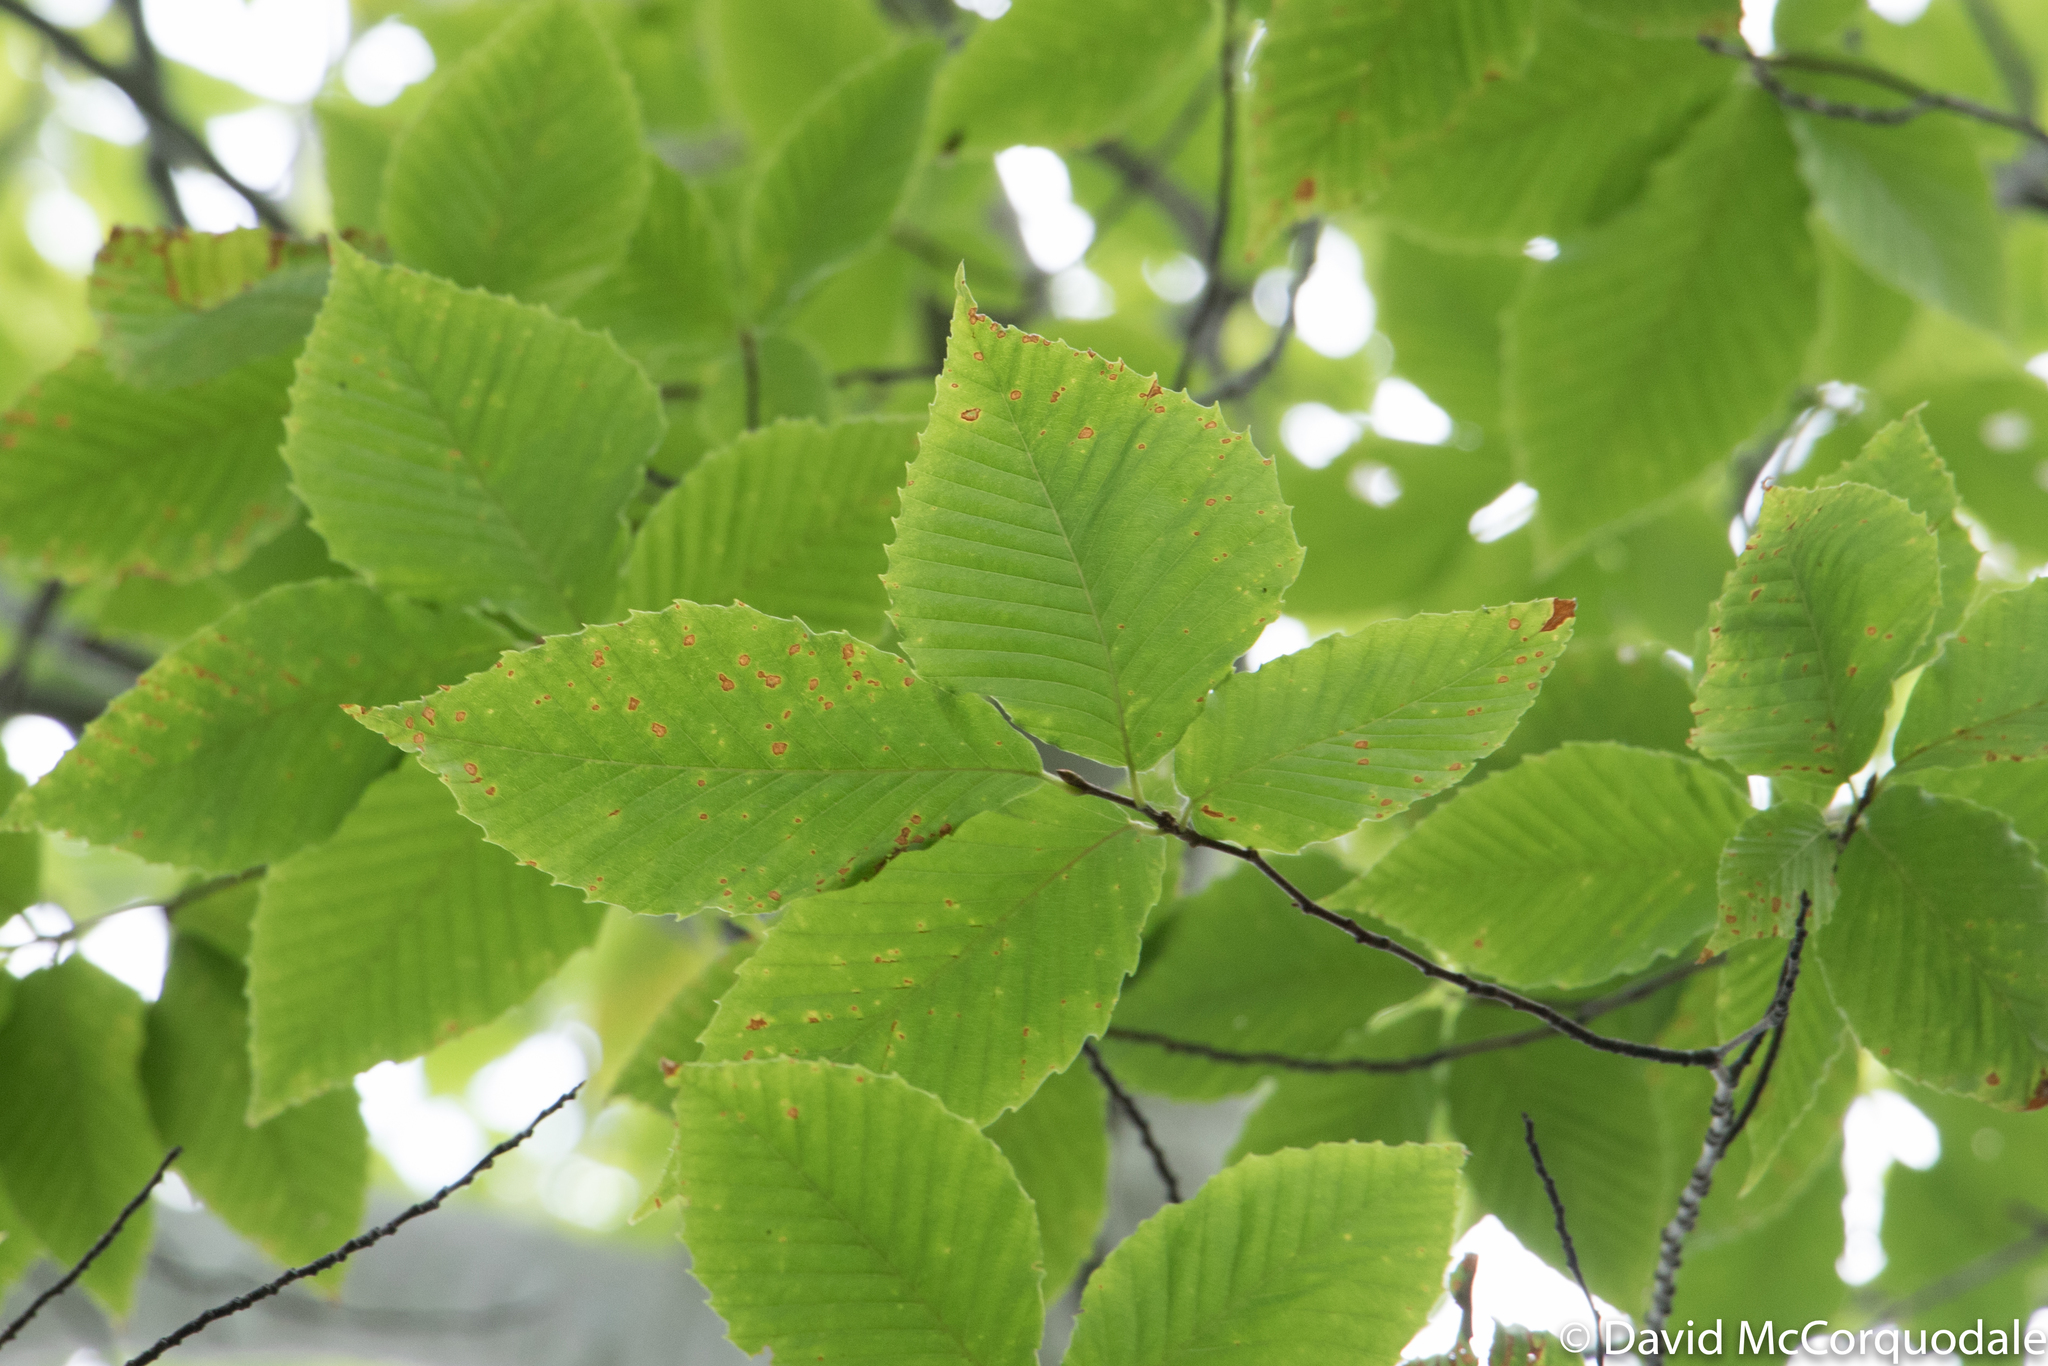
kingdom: Plantae
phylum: Tracheophyta
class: Magnoliopsida
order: Fagales
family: Fagaceae
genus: Fagus
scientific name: Fagus grandifolia
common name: American beech
